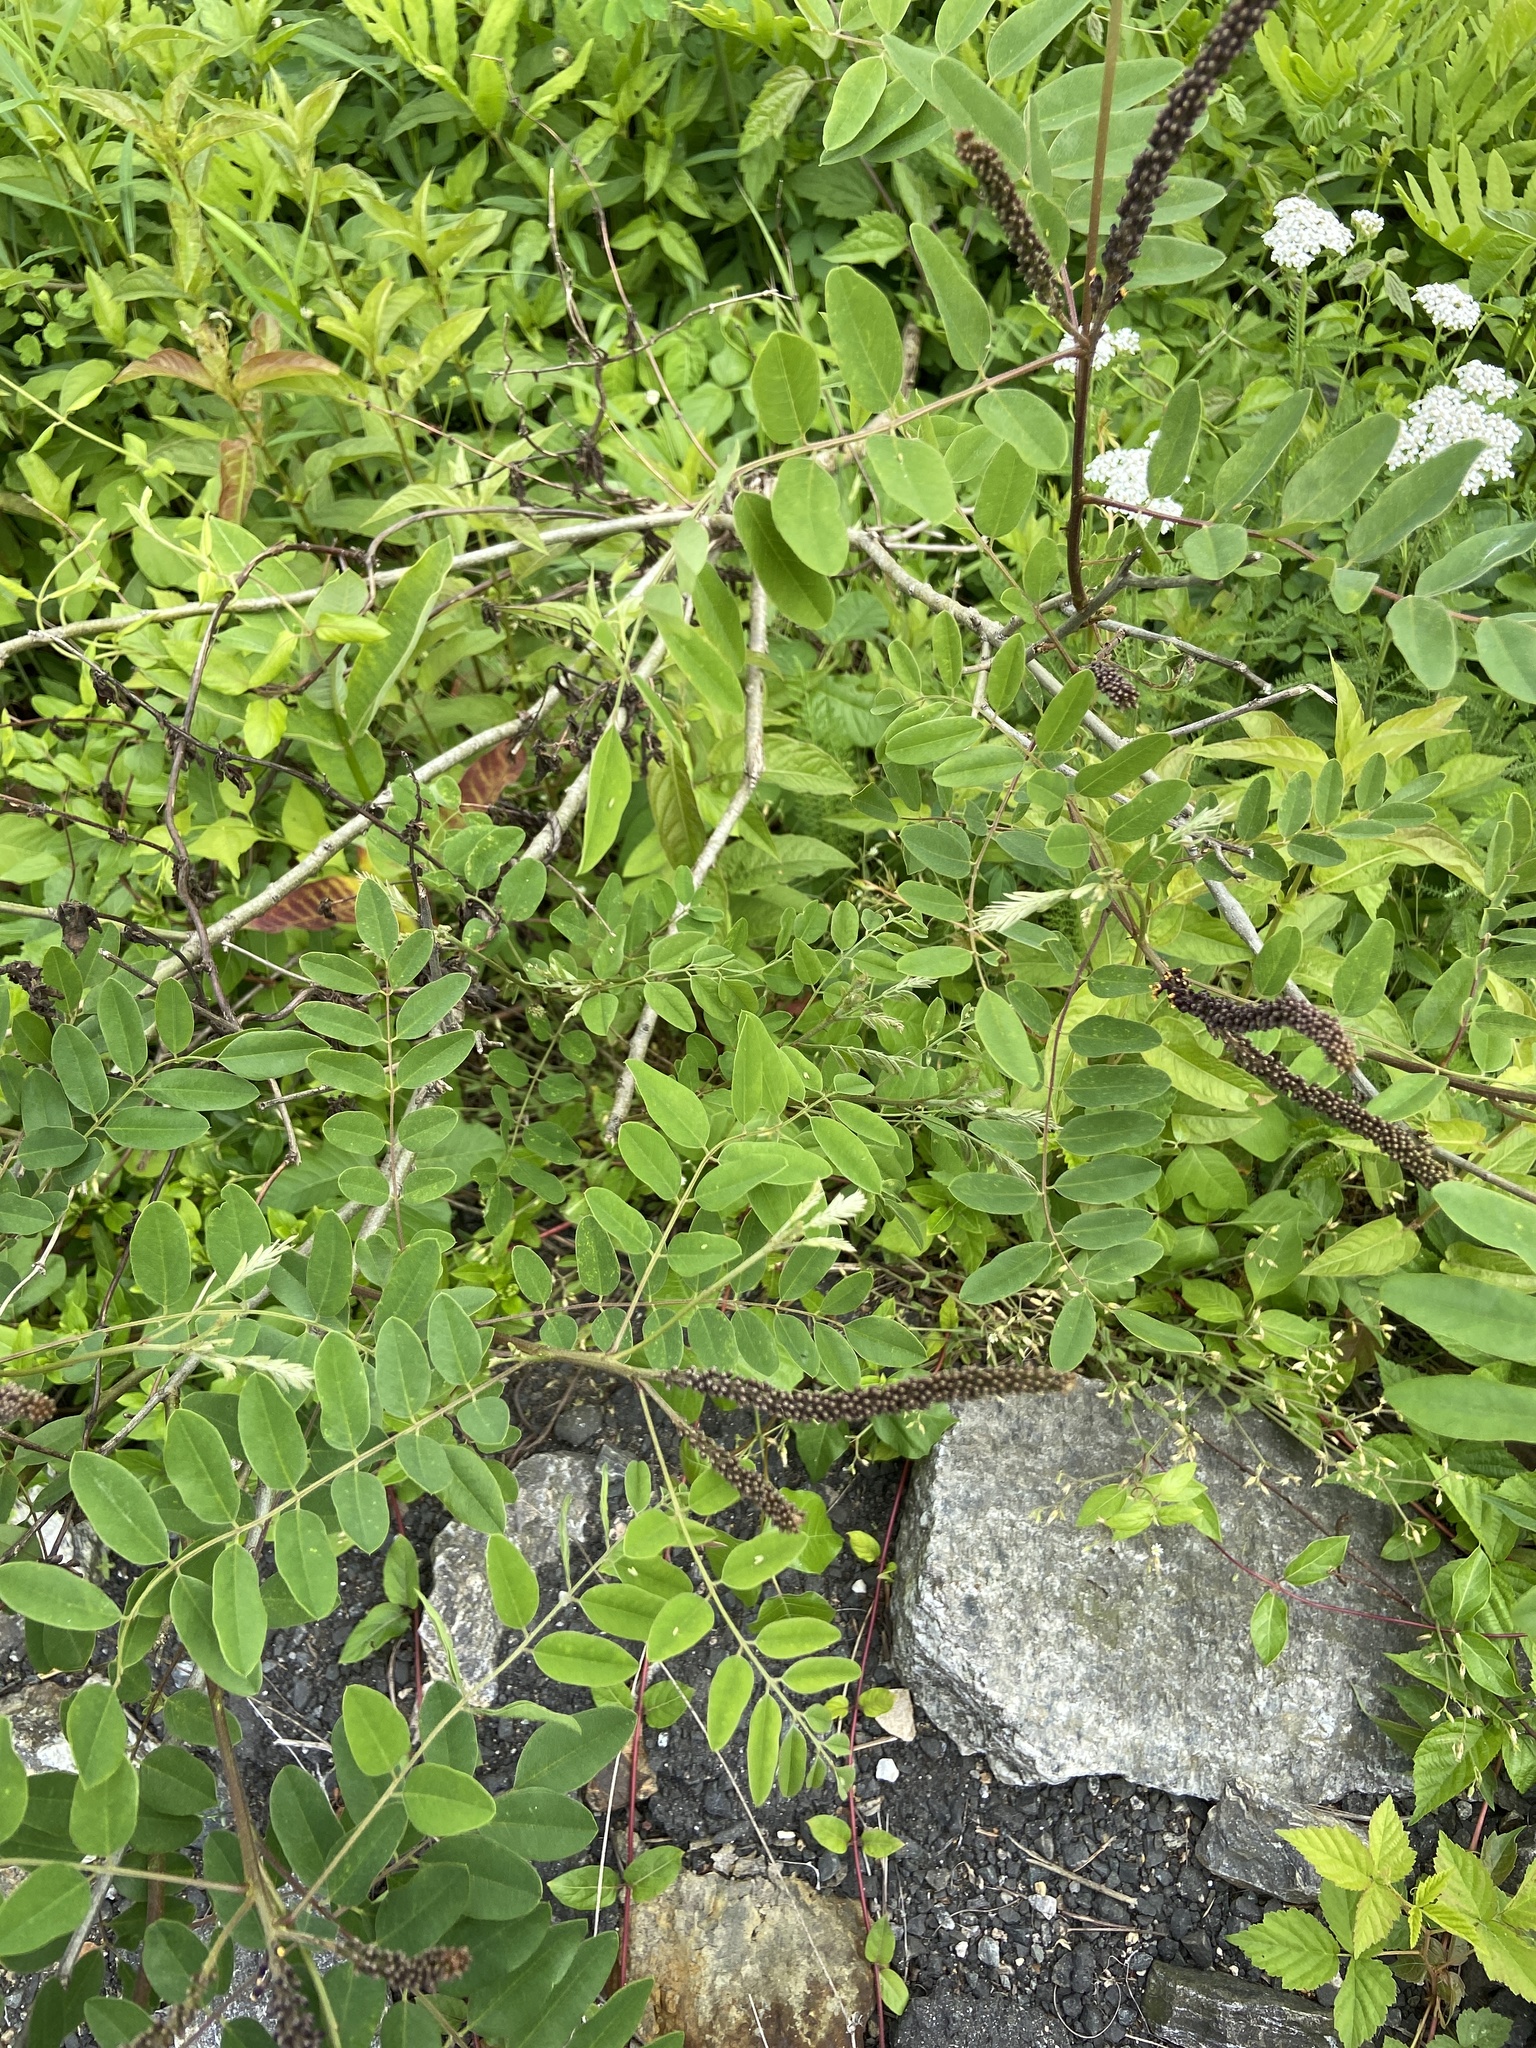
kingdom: Plantae
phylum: Tracheophyta
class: Magnoliopsida
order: Fabales
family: Fabaceae
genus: Amorpha
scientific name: Amorpha fruticosa
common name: False indigo
